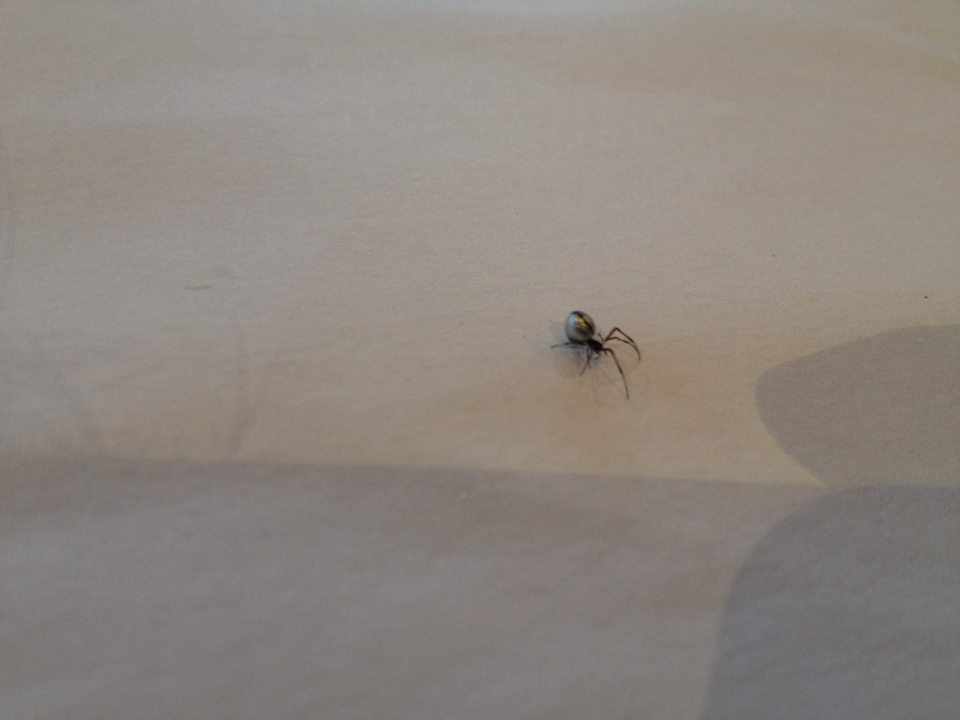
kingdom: Animalia
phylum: Arthropoda
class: Arachnida
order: Araneae
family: Theridiidae
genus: Argyrodes
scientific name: Argyrodes antipodianus
